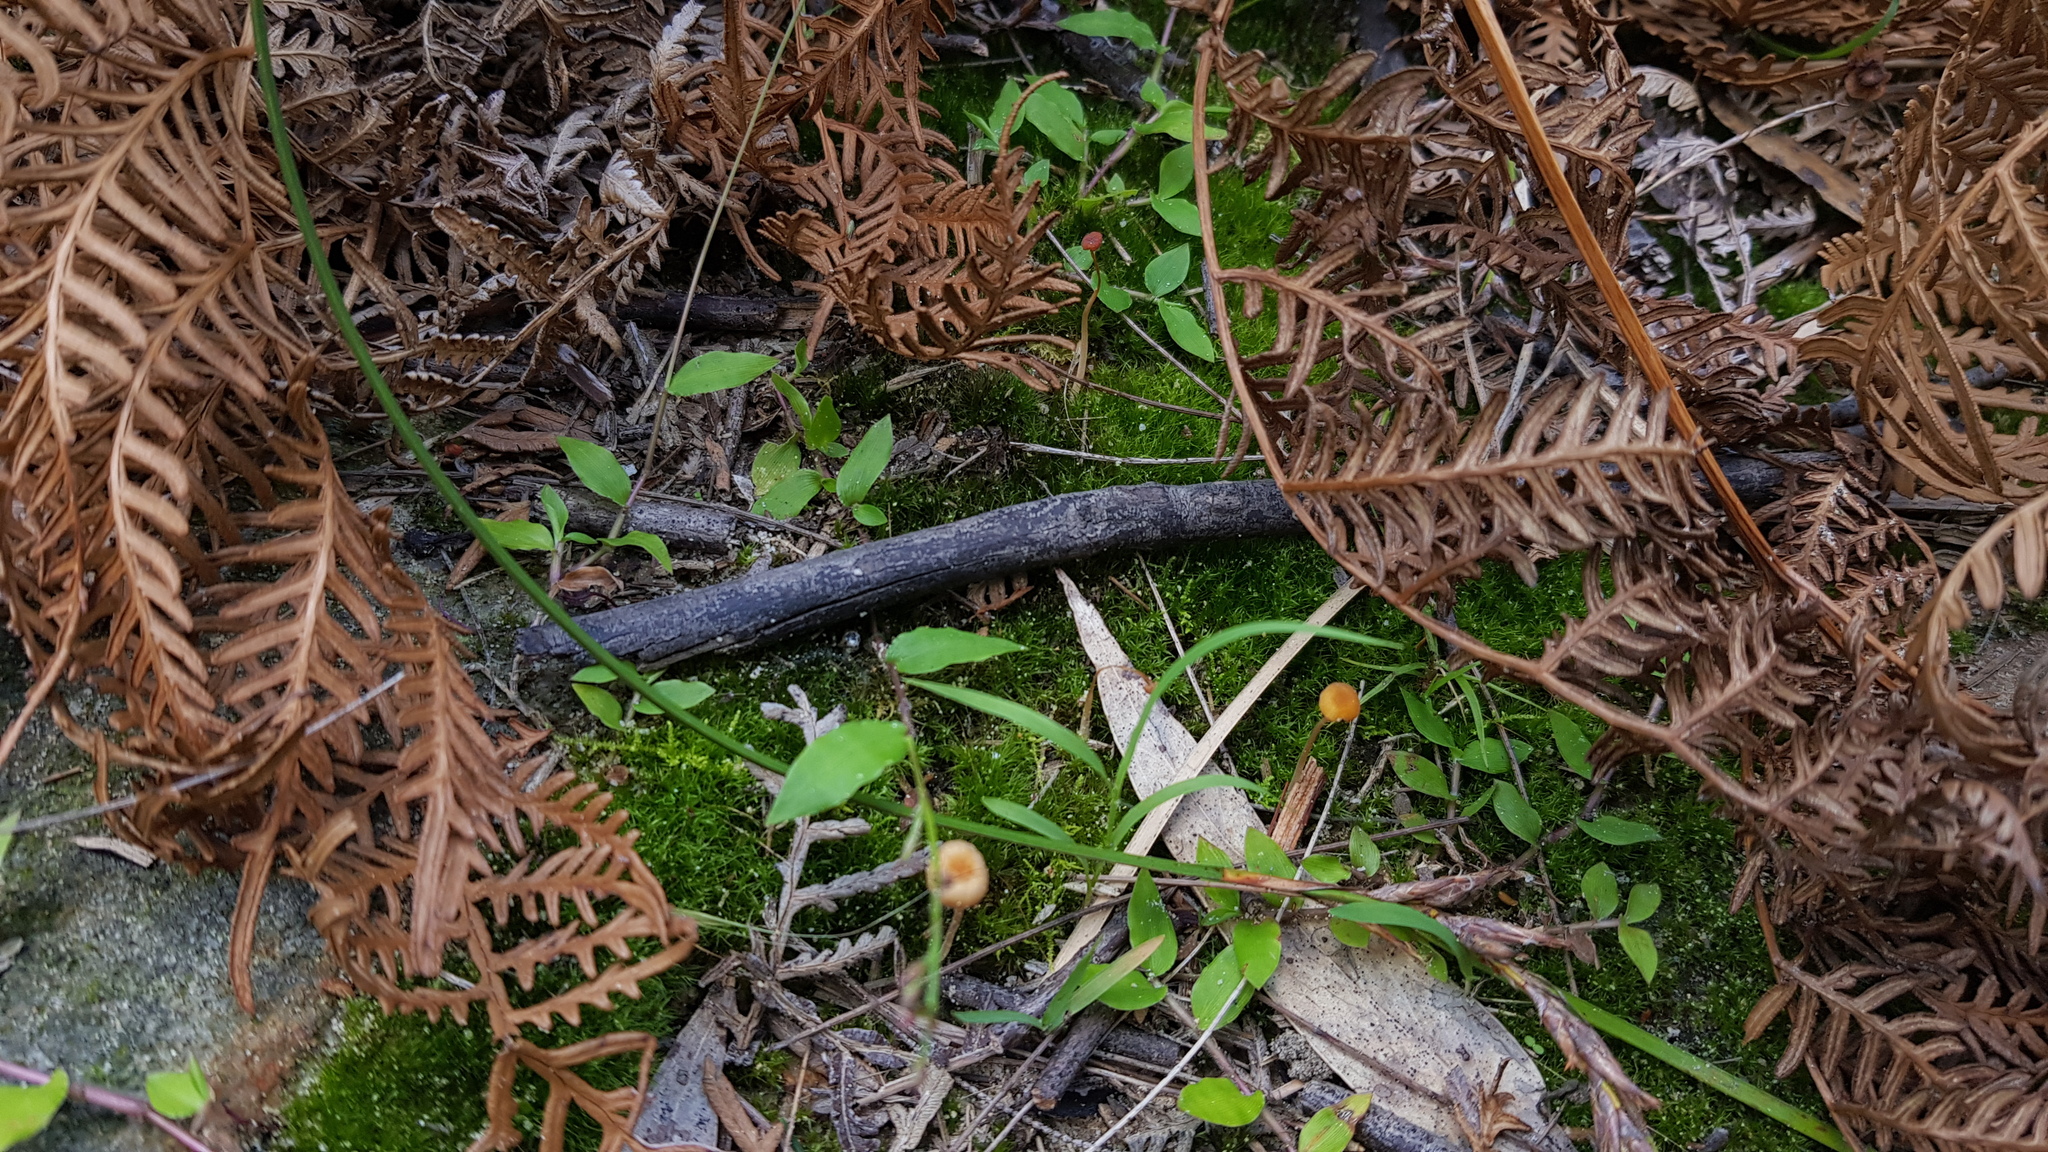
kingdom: Fungi
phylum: Basidiomycota
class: Agaricomycetes
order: Hymenochaetales
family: Rickenellaceae
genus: Rickenella
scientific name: Rickenella fibula
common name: Orange mosscap
